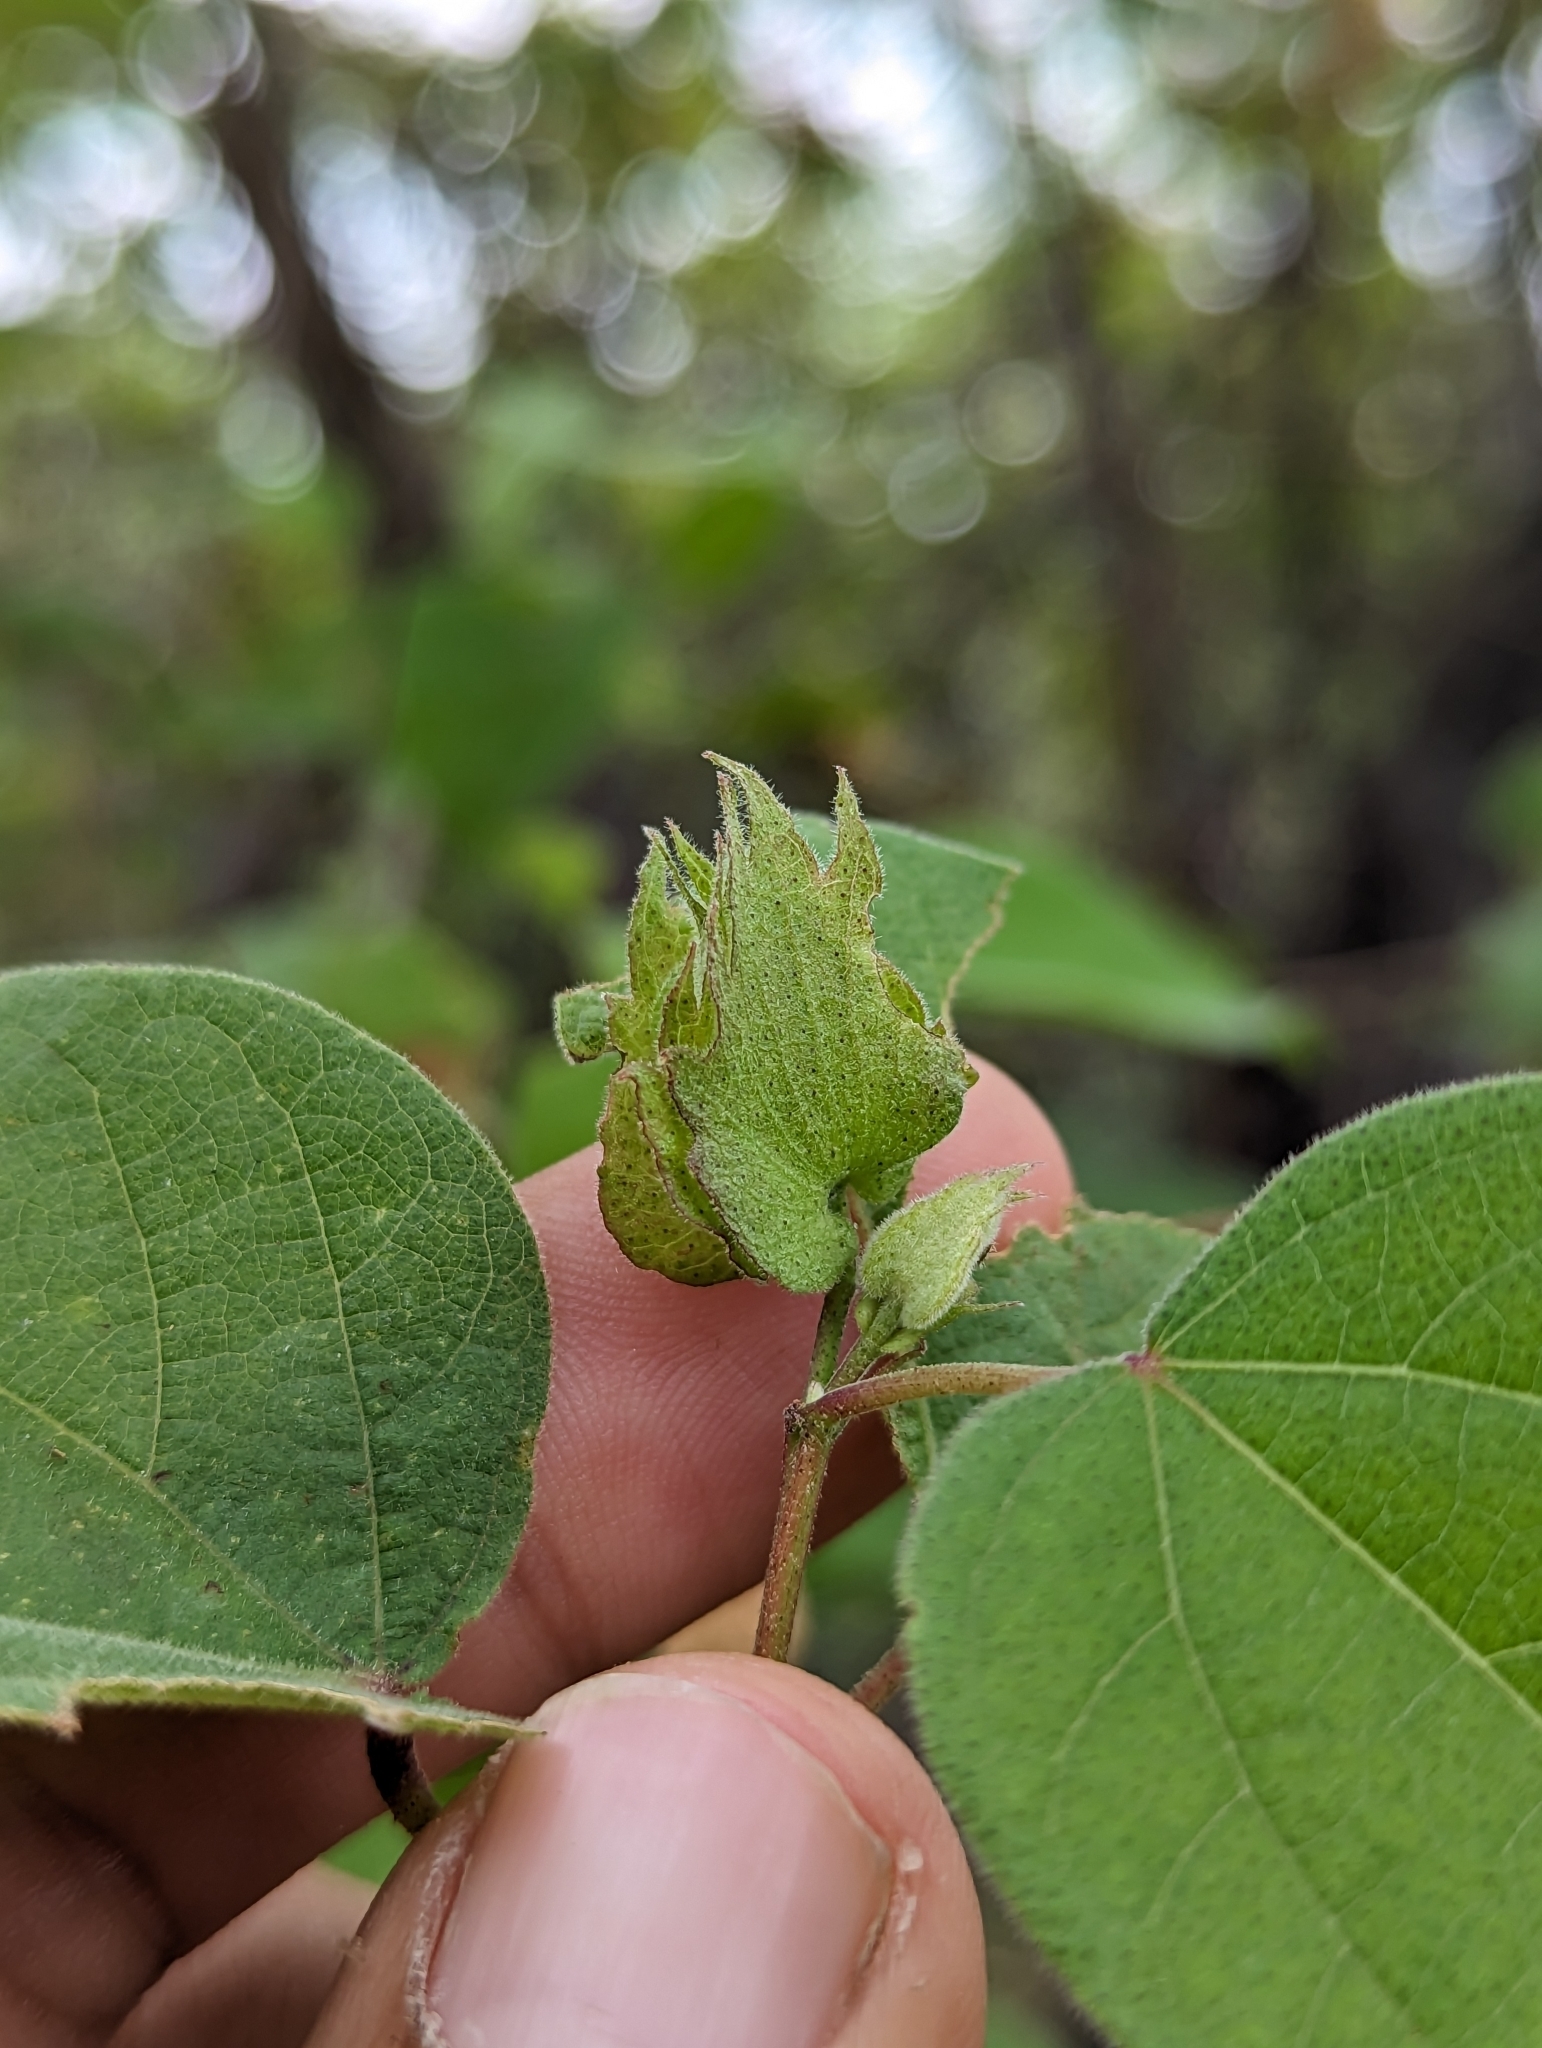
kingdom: Plantae
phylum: Tracheophyta
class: Magnoliopsida
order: Malvales
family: Malvaceae
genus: Gossypium
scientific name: Gossypium klotzschianum
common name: Galapagos cotton
